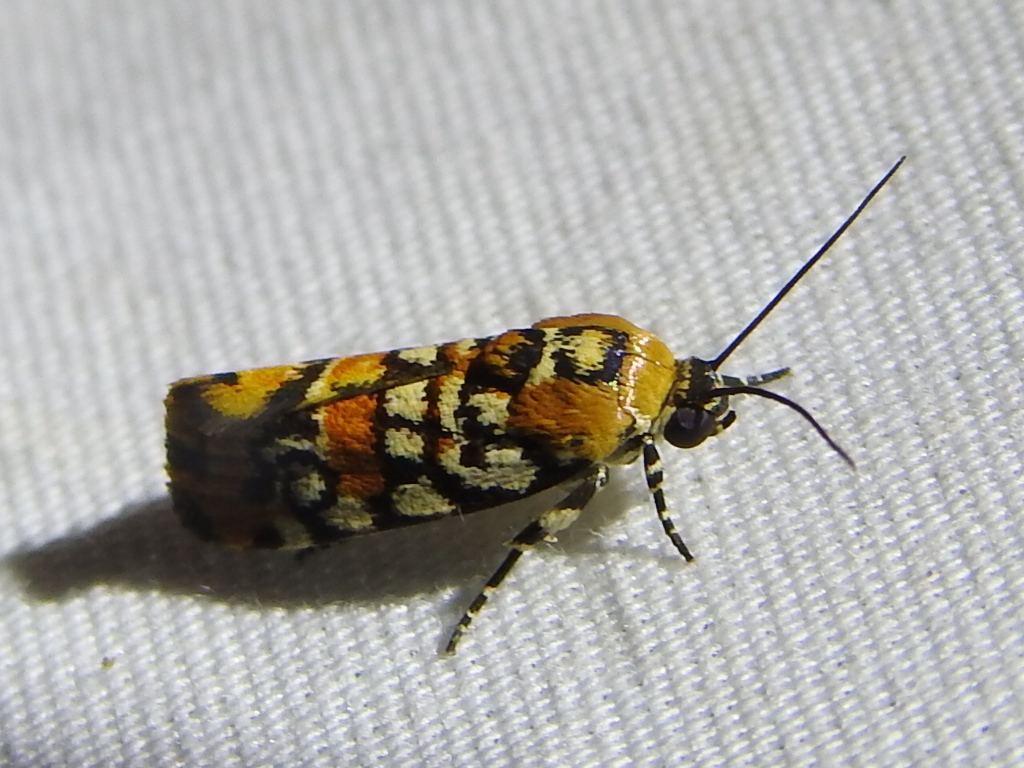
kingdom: Animalia
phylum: Arthropoda
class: Insecta
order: Lepidoptera
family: Noctuidae
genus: Spragueia
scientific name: Spragueia guttata
